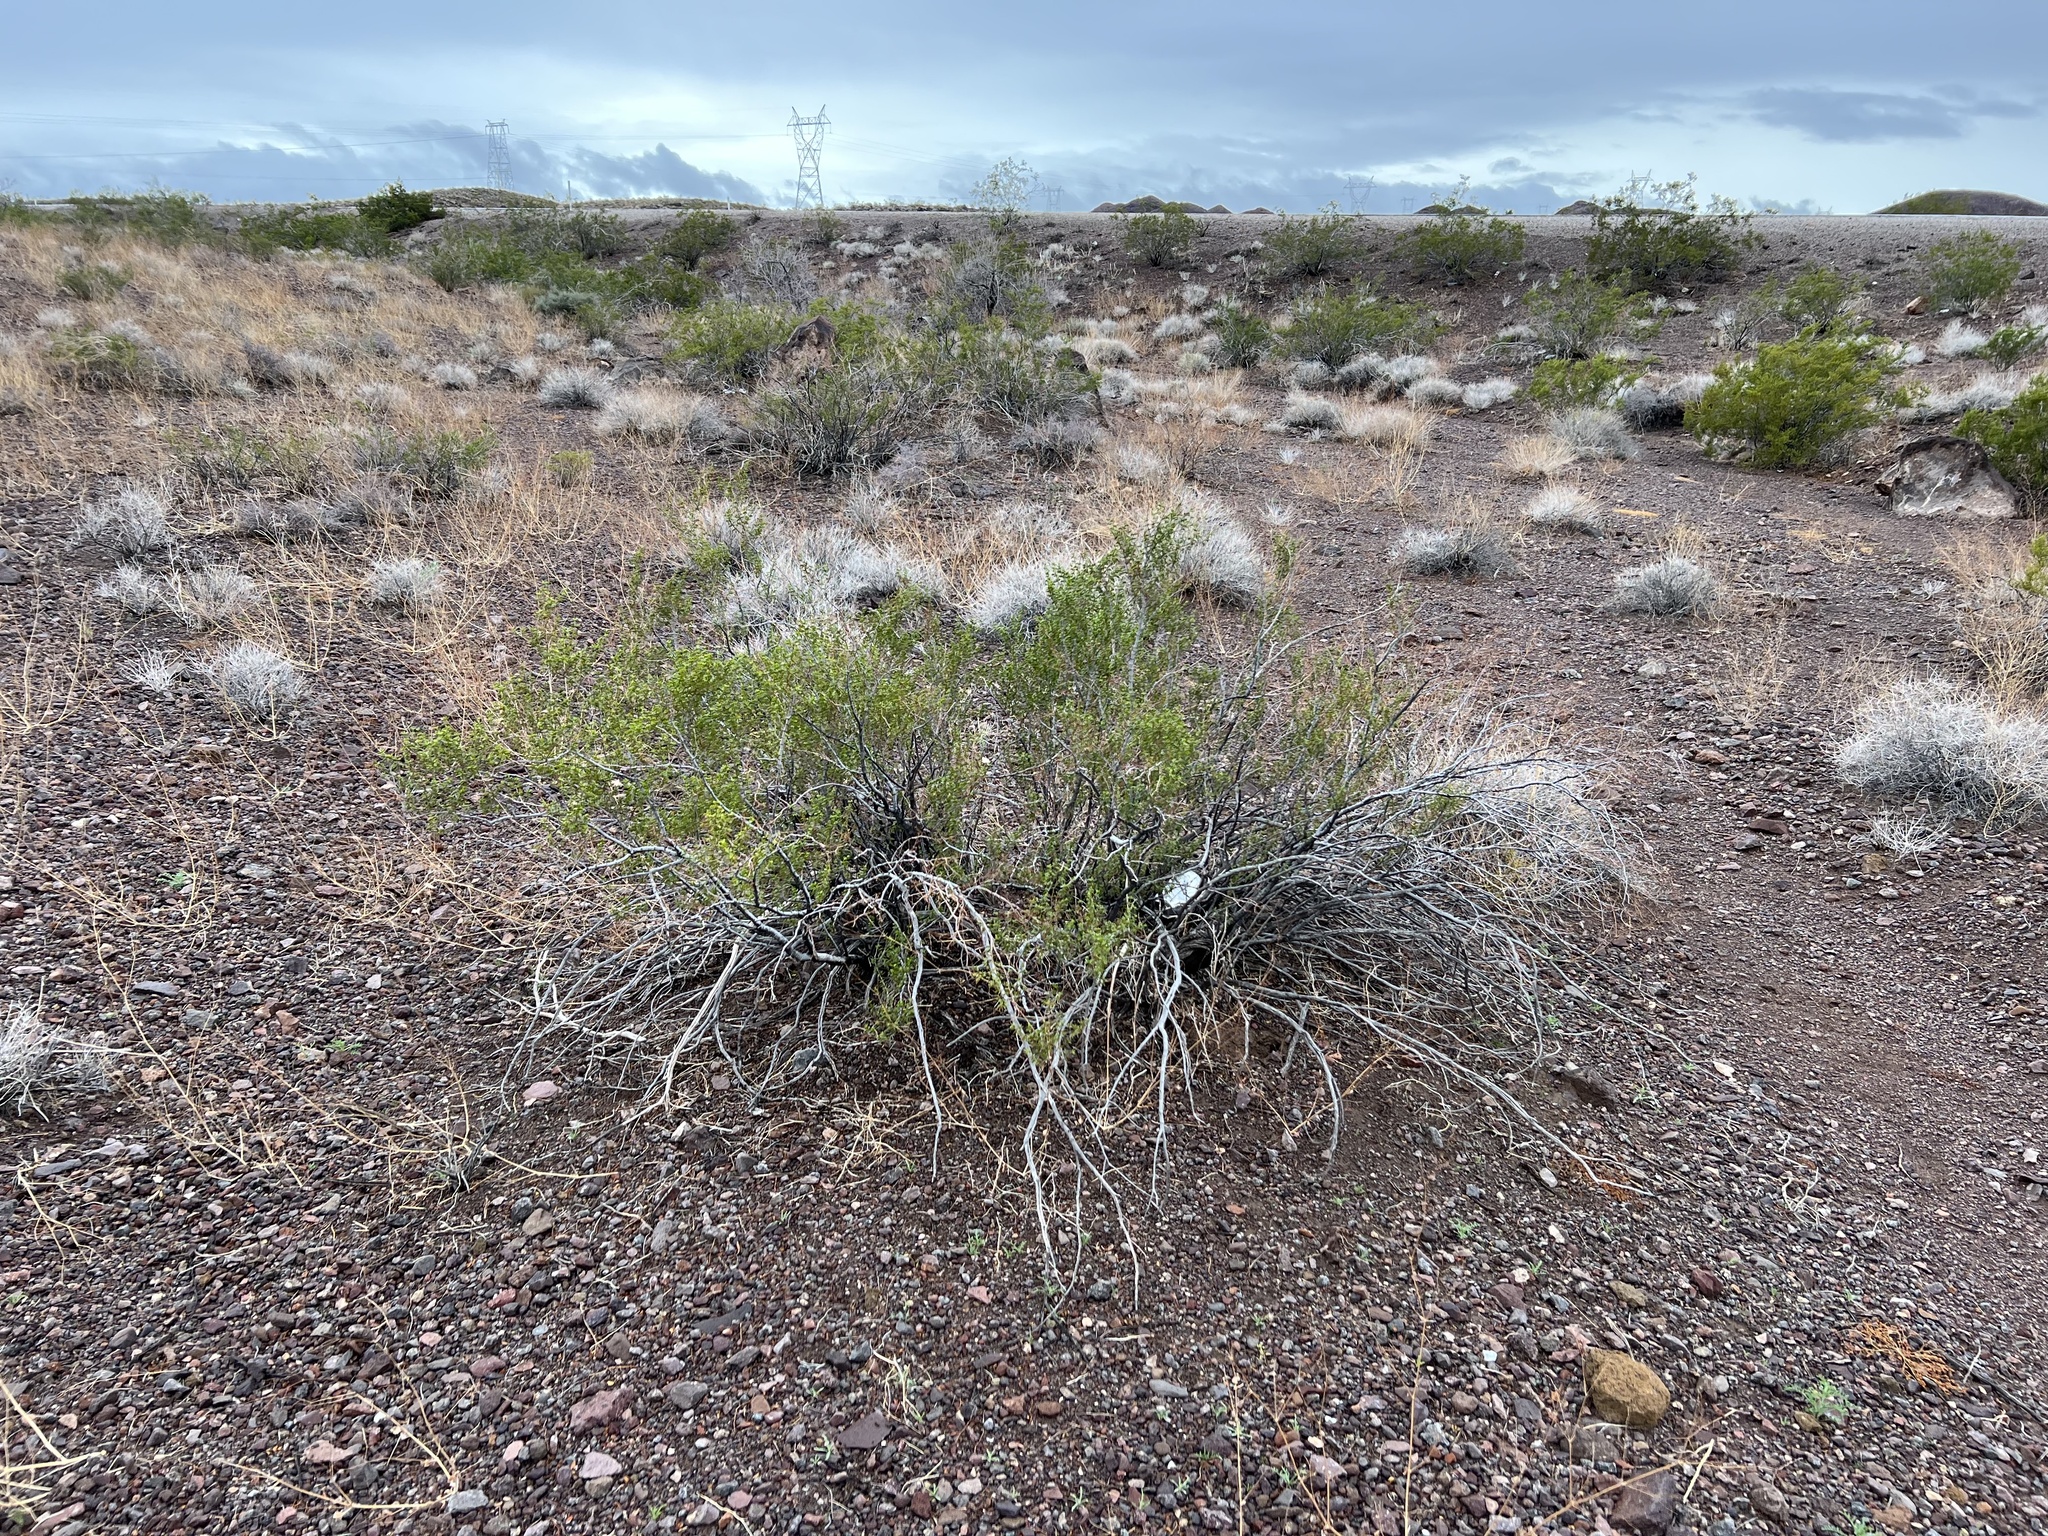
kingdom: Plantae
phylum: Tracheophyta
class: Magnoliopsida
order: Zygophyllales
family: Zygophyllaceae
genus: Larrea
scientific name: Larrea tridentata
